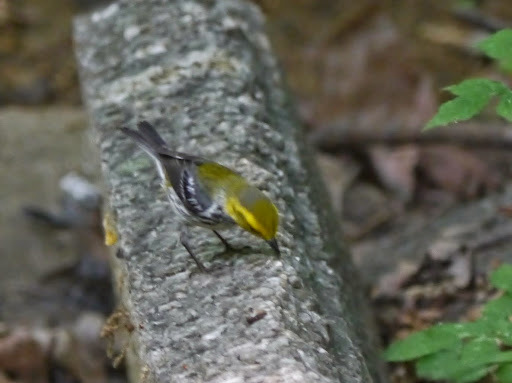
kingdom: Animalia
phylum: Chordata
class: Aves
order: Passeriformes
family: Parulidae
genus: Setophaga
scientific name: Setophaga virens
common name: Black-throated green warbler
